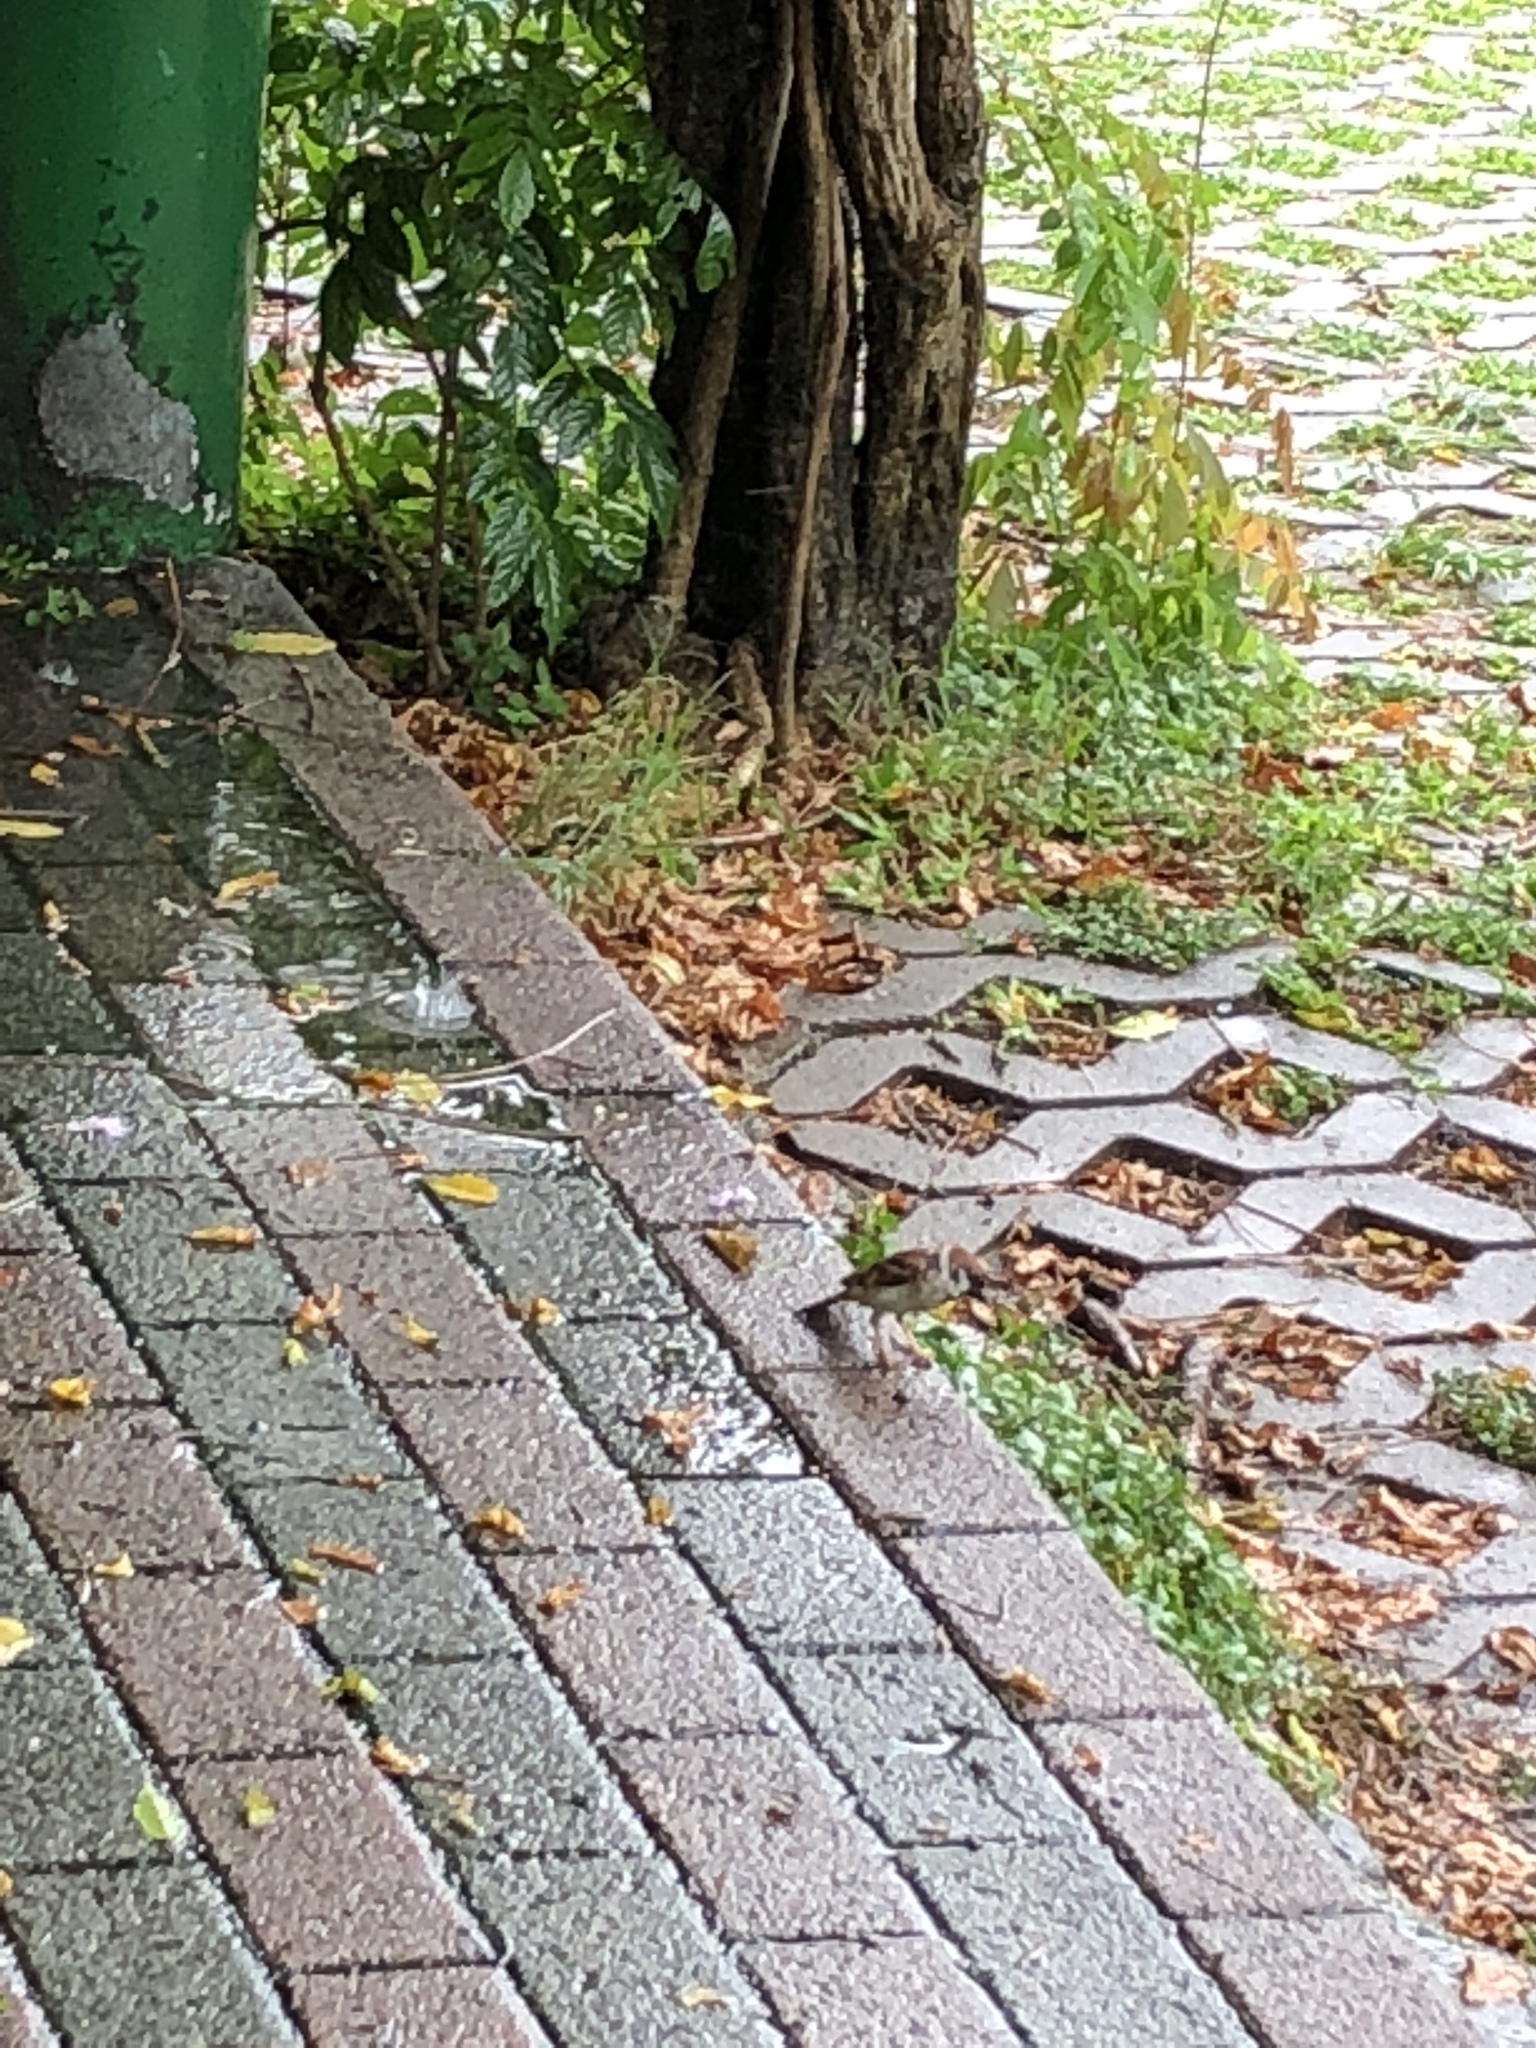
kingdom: Animalia
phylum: Chordata
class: Aves
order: Passeriformes
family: Passeridae
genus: Passer
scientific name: Passer montanus
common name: Eurasian tree sparrow
